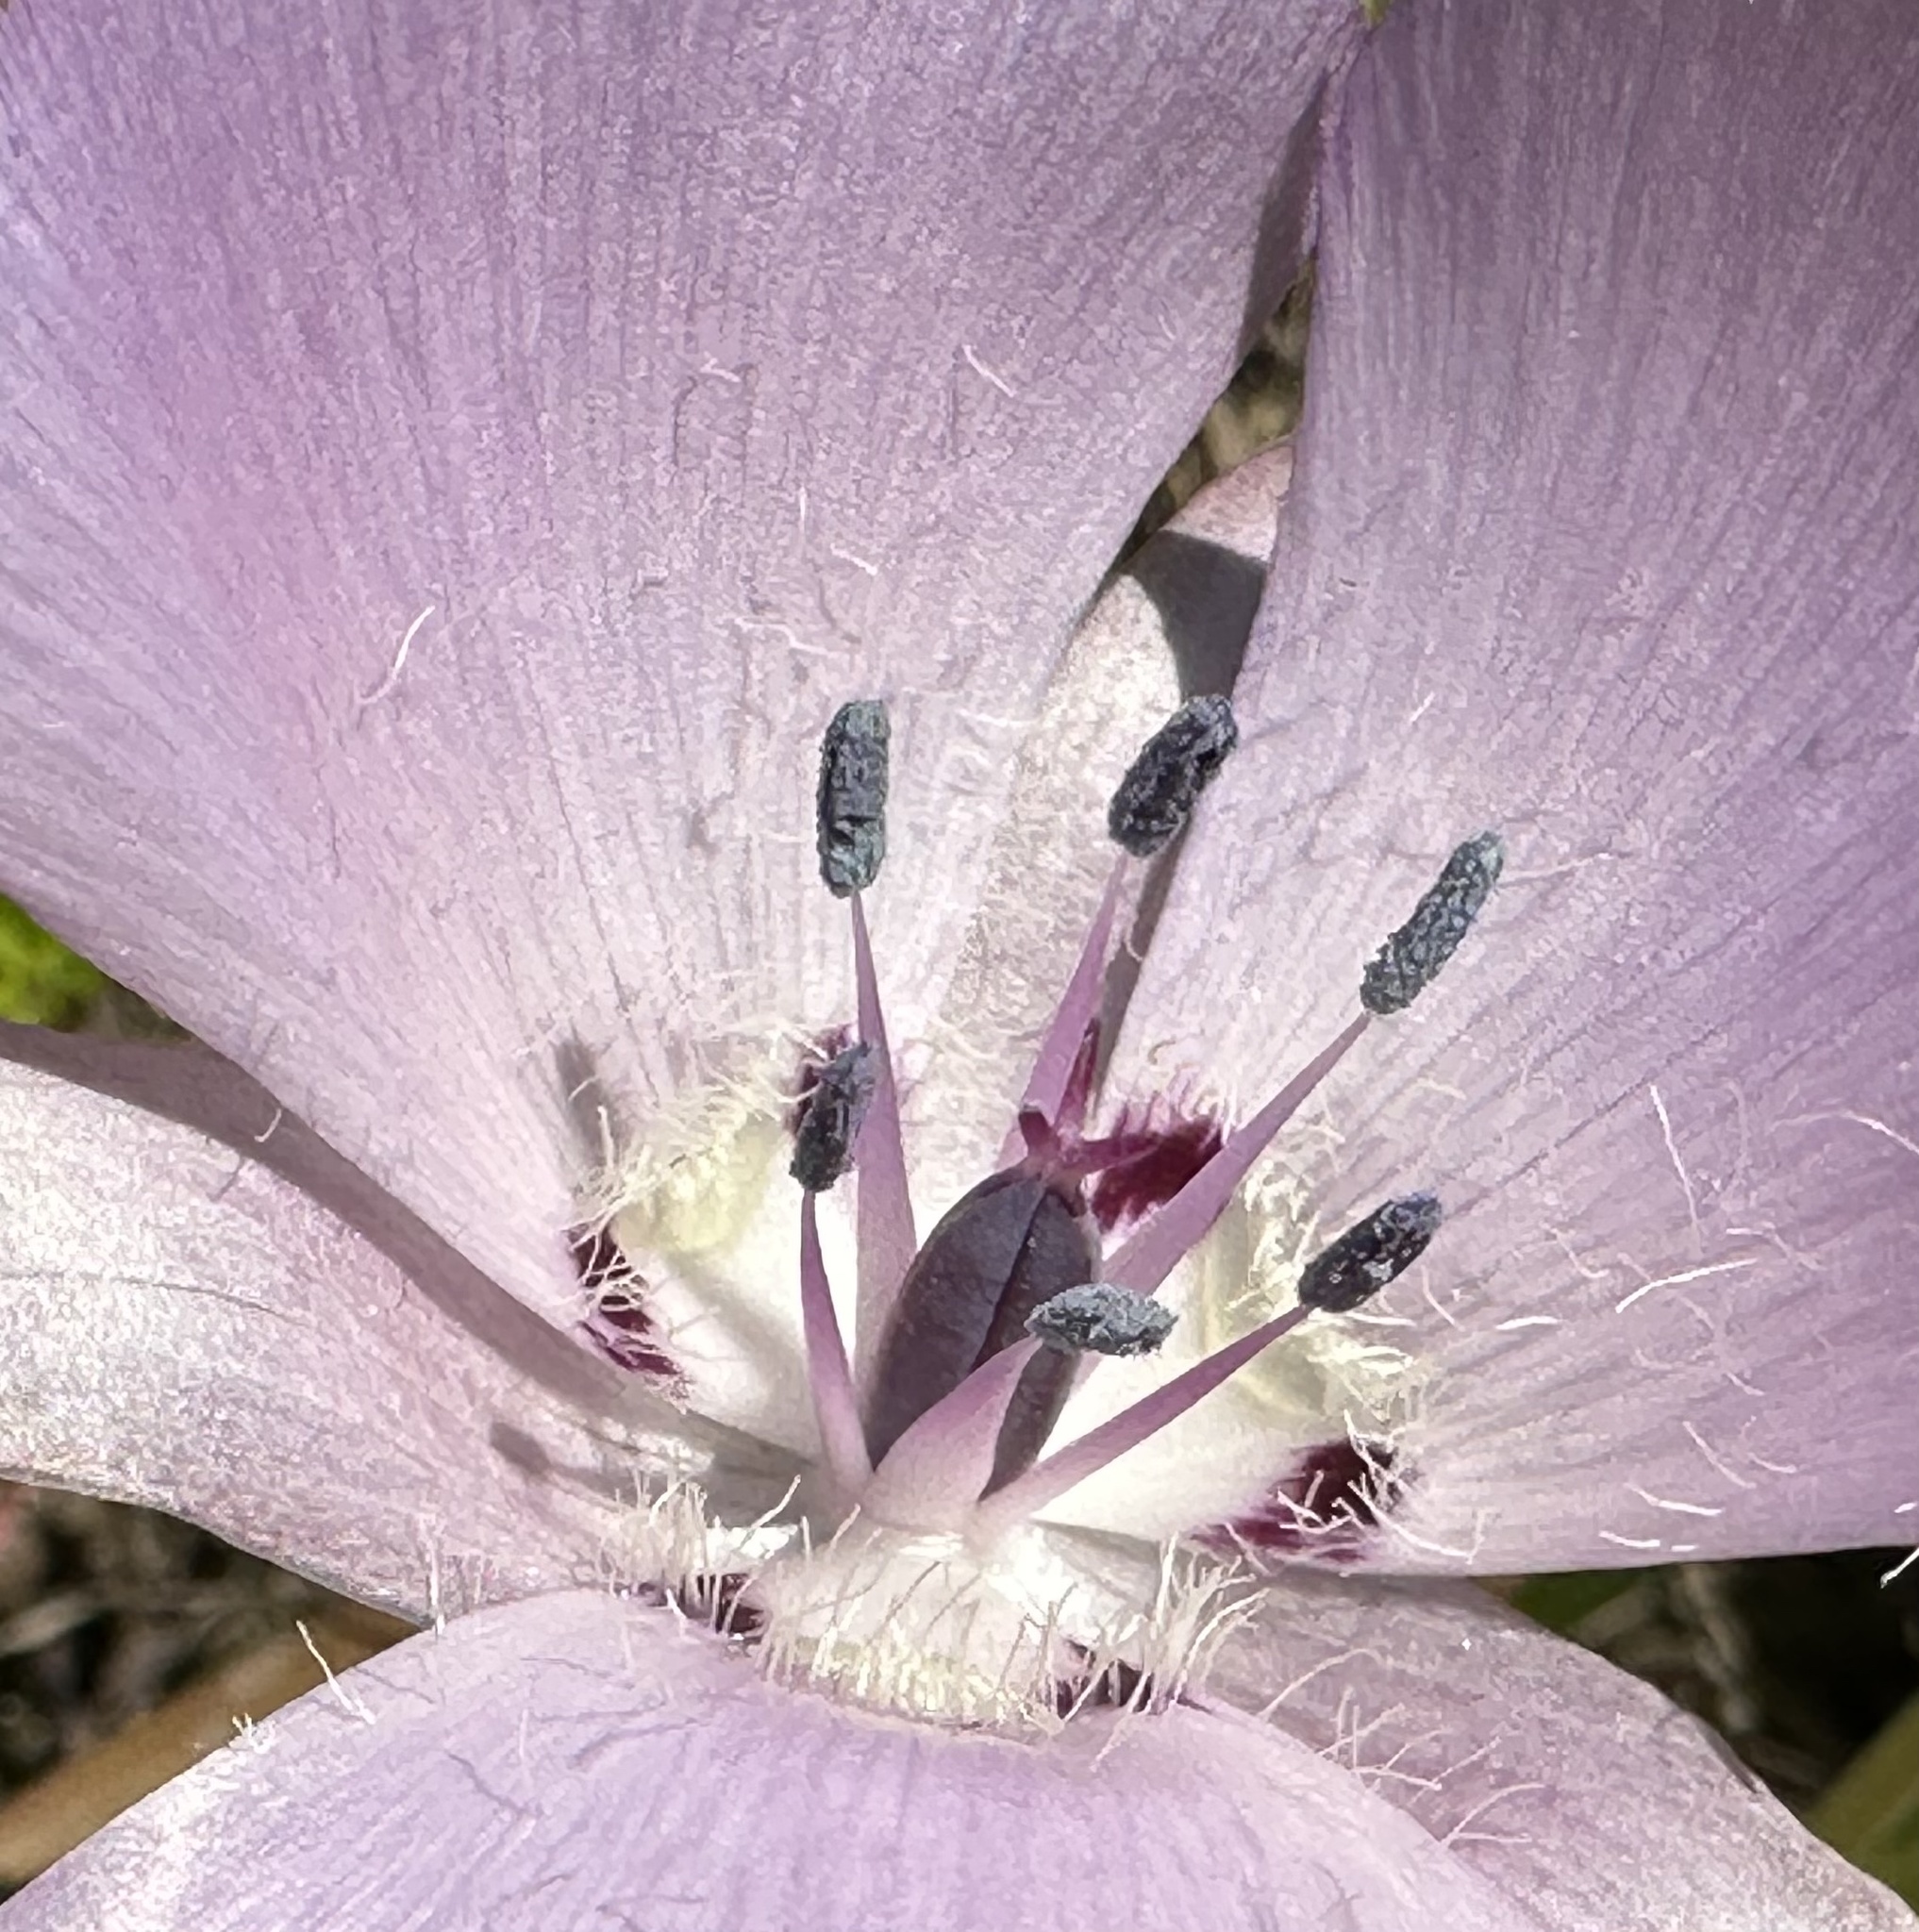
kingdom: Plantae
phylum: Tracheophyta
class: Liliopsida
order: Liliales
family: Liliaceae
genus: Calochortus
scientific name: Calochortus uniflorus
